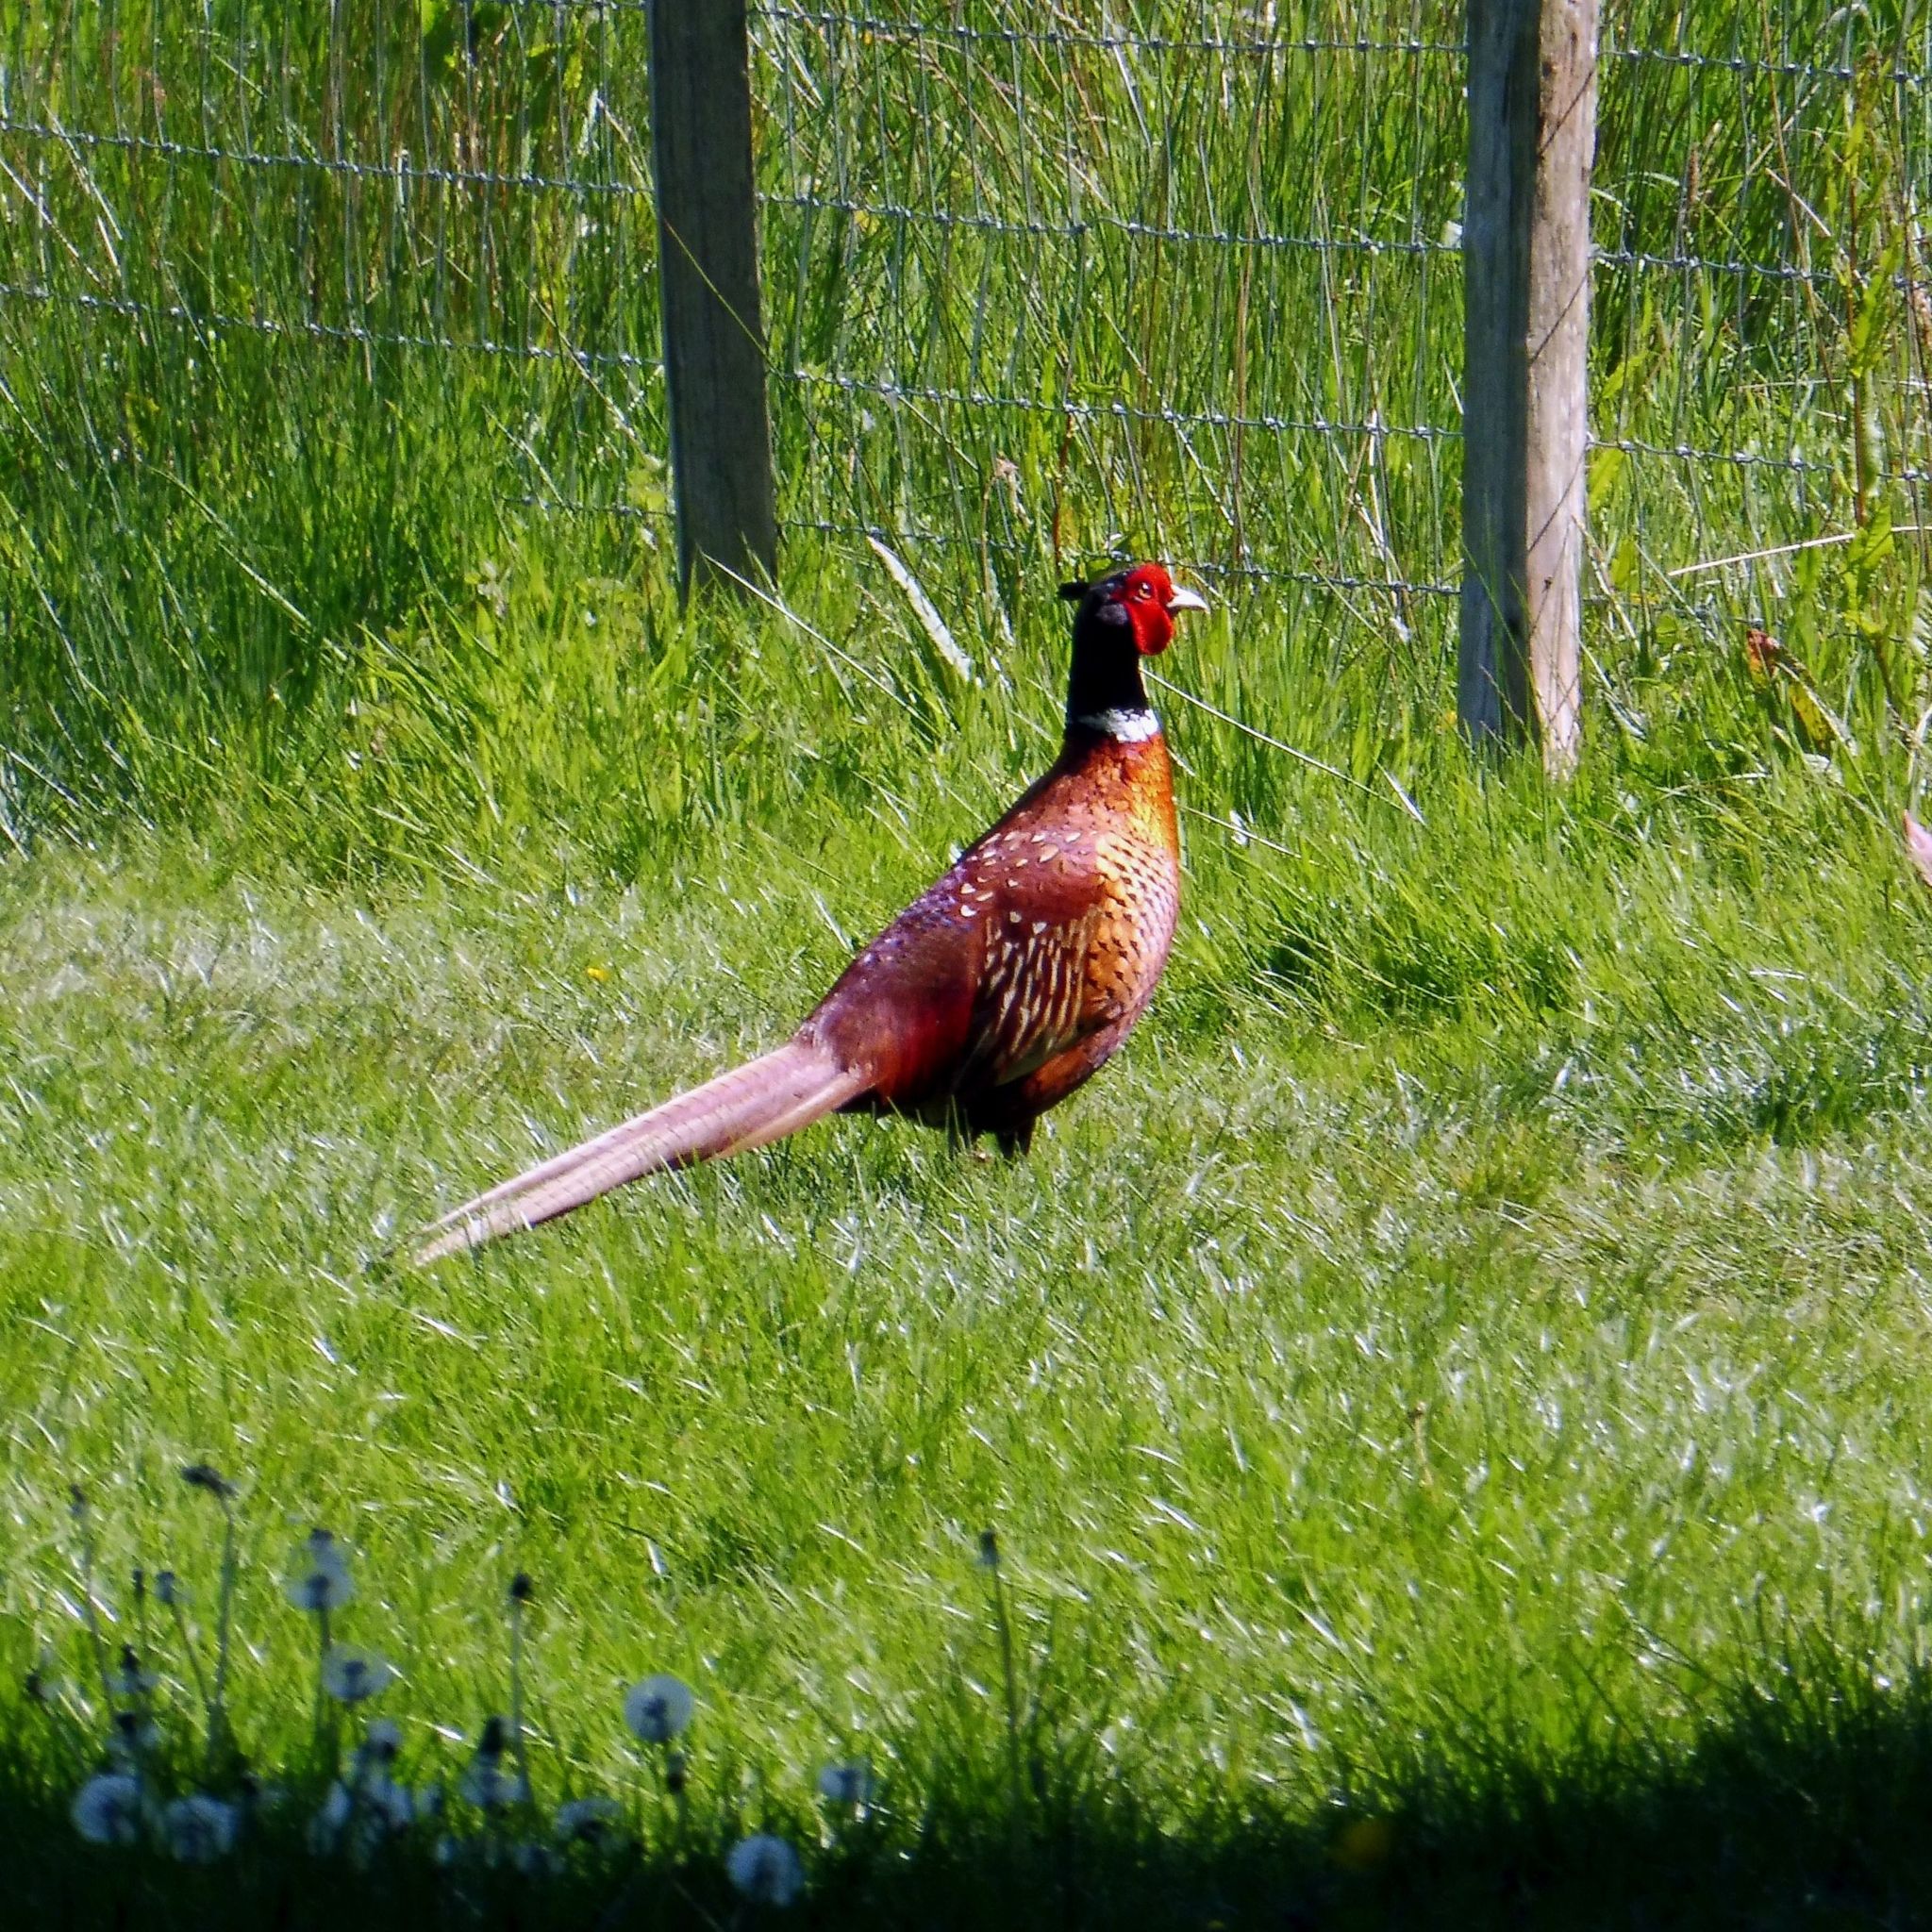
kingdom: Animalia
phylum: Chordata
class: Aves
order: Galliformes
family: Phasianidae
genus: Phasianus
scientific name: Phasianus colchicus
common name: Common pheasant
